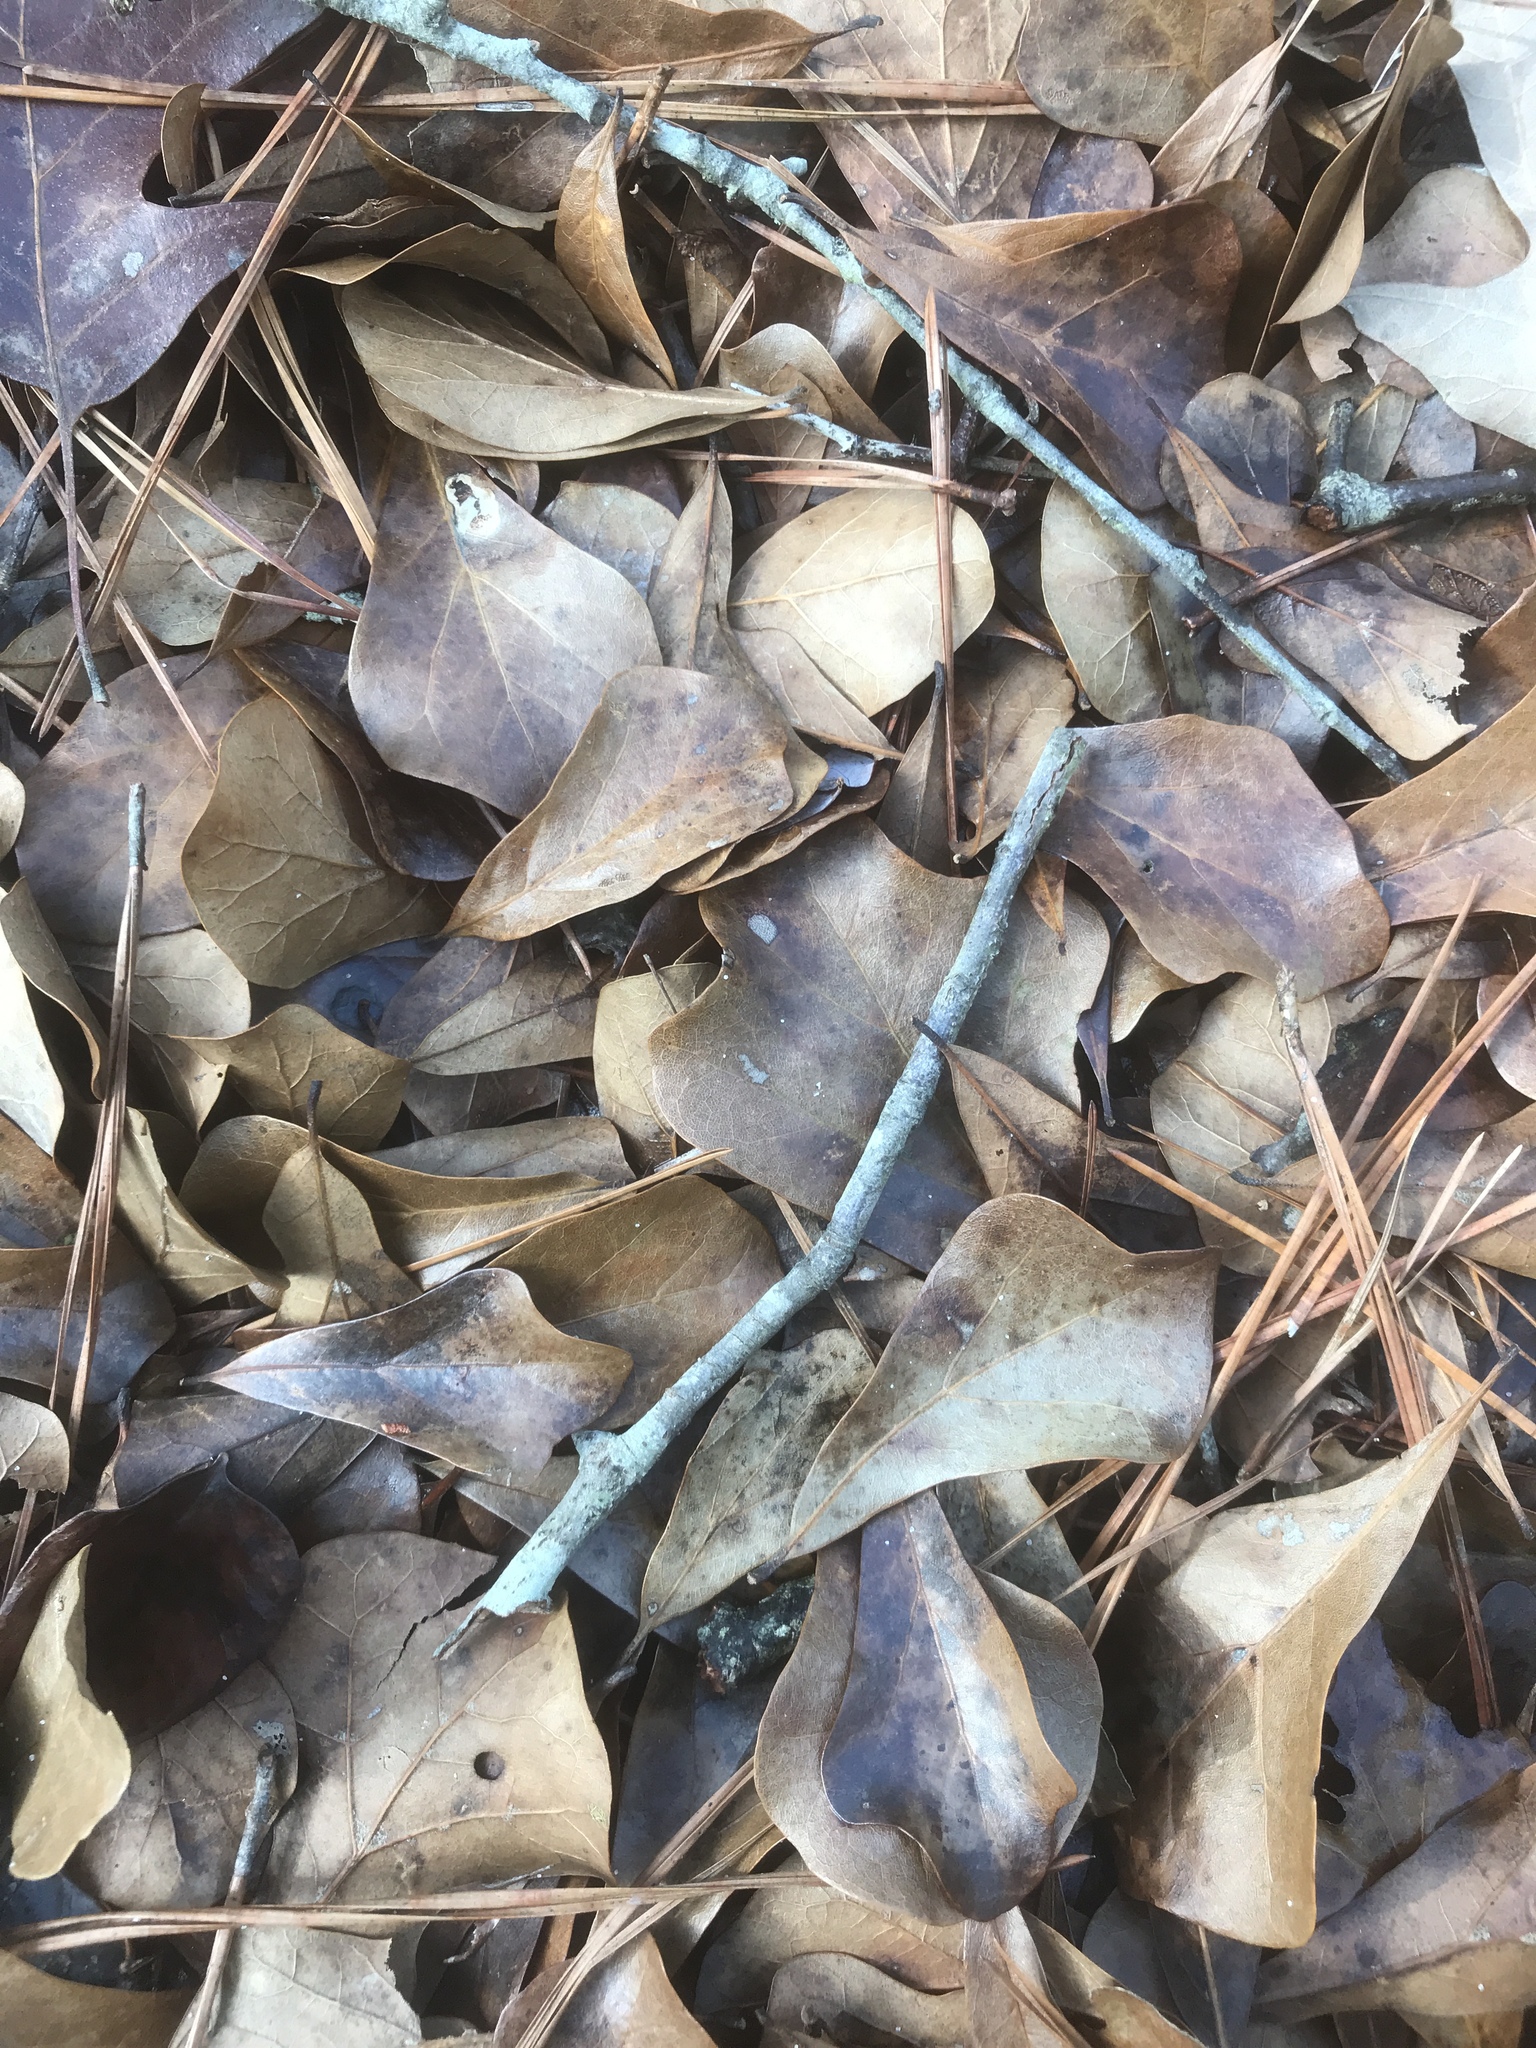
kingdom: Plantae
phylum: Tracheophyta
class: Magnoliopsida
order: Fagales
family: Fagaceae
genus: Quercus
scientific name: Quercus nigra
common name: Water oak
